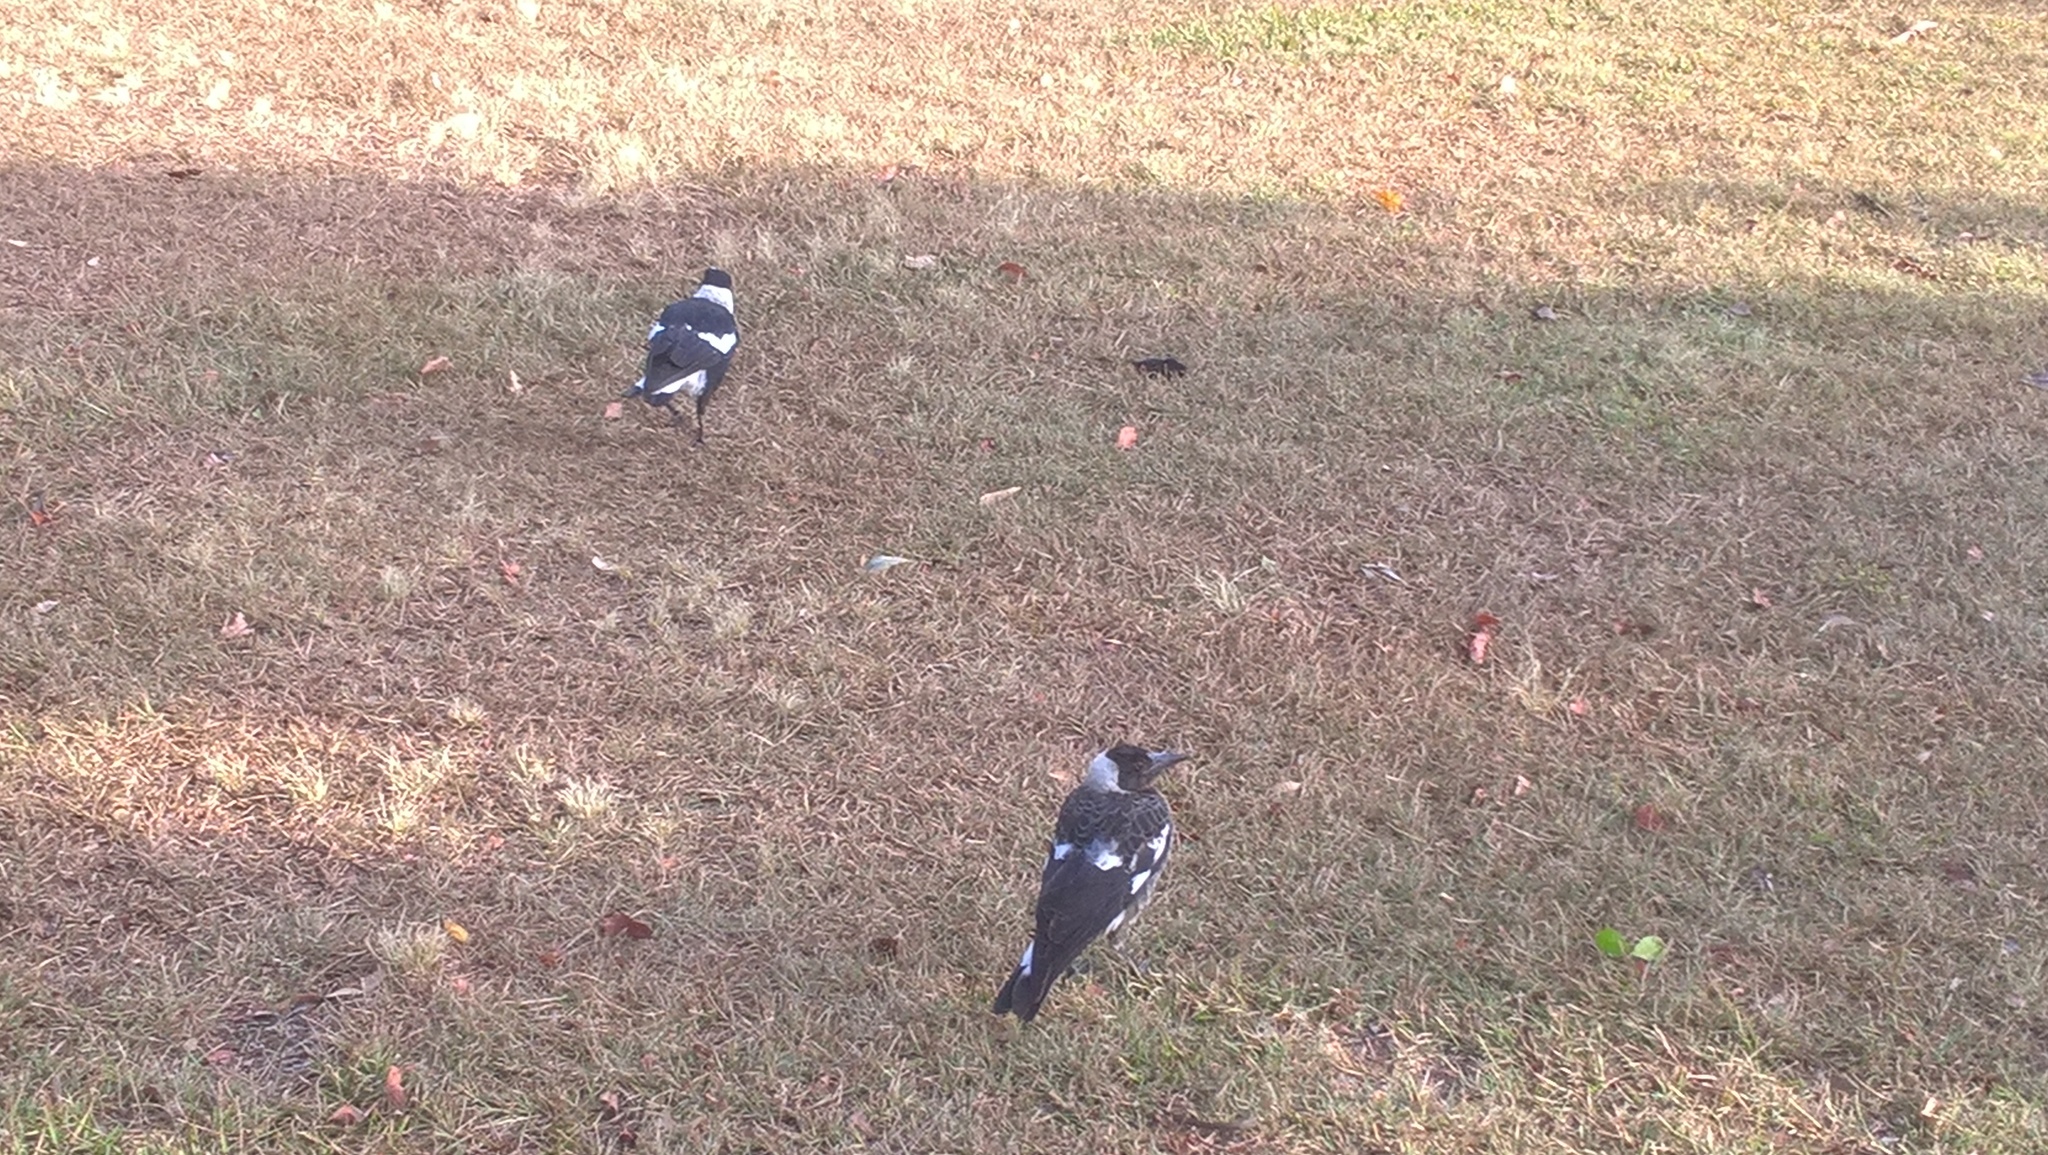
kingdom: Animalia
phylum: Chordata
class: Aves
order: Passeriformes
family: Cracticidae
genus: Gymnorhina
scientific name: Gymnorhina tibicen
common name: Australian magpie
